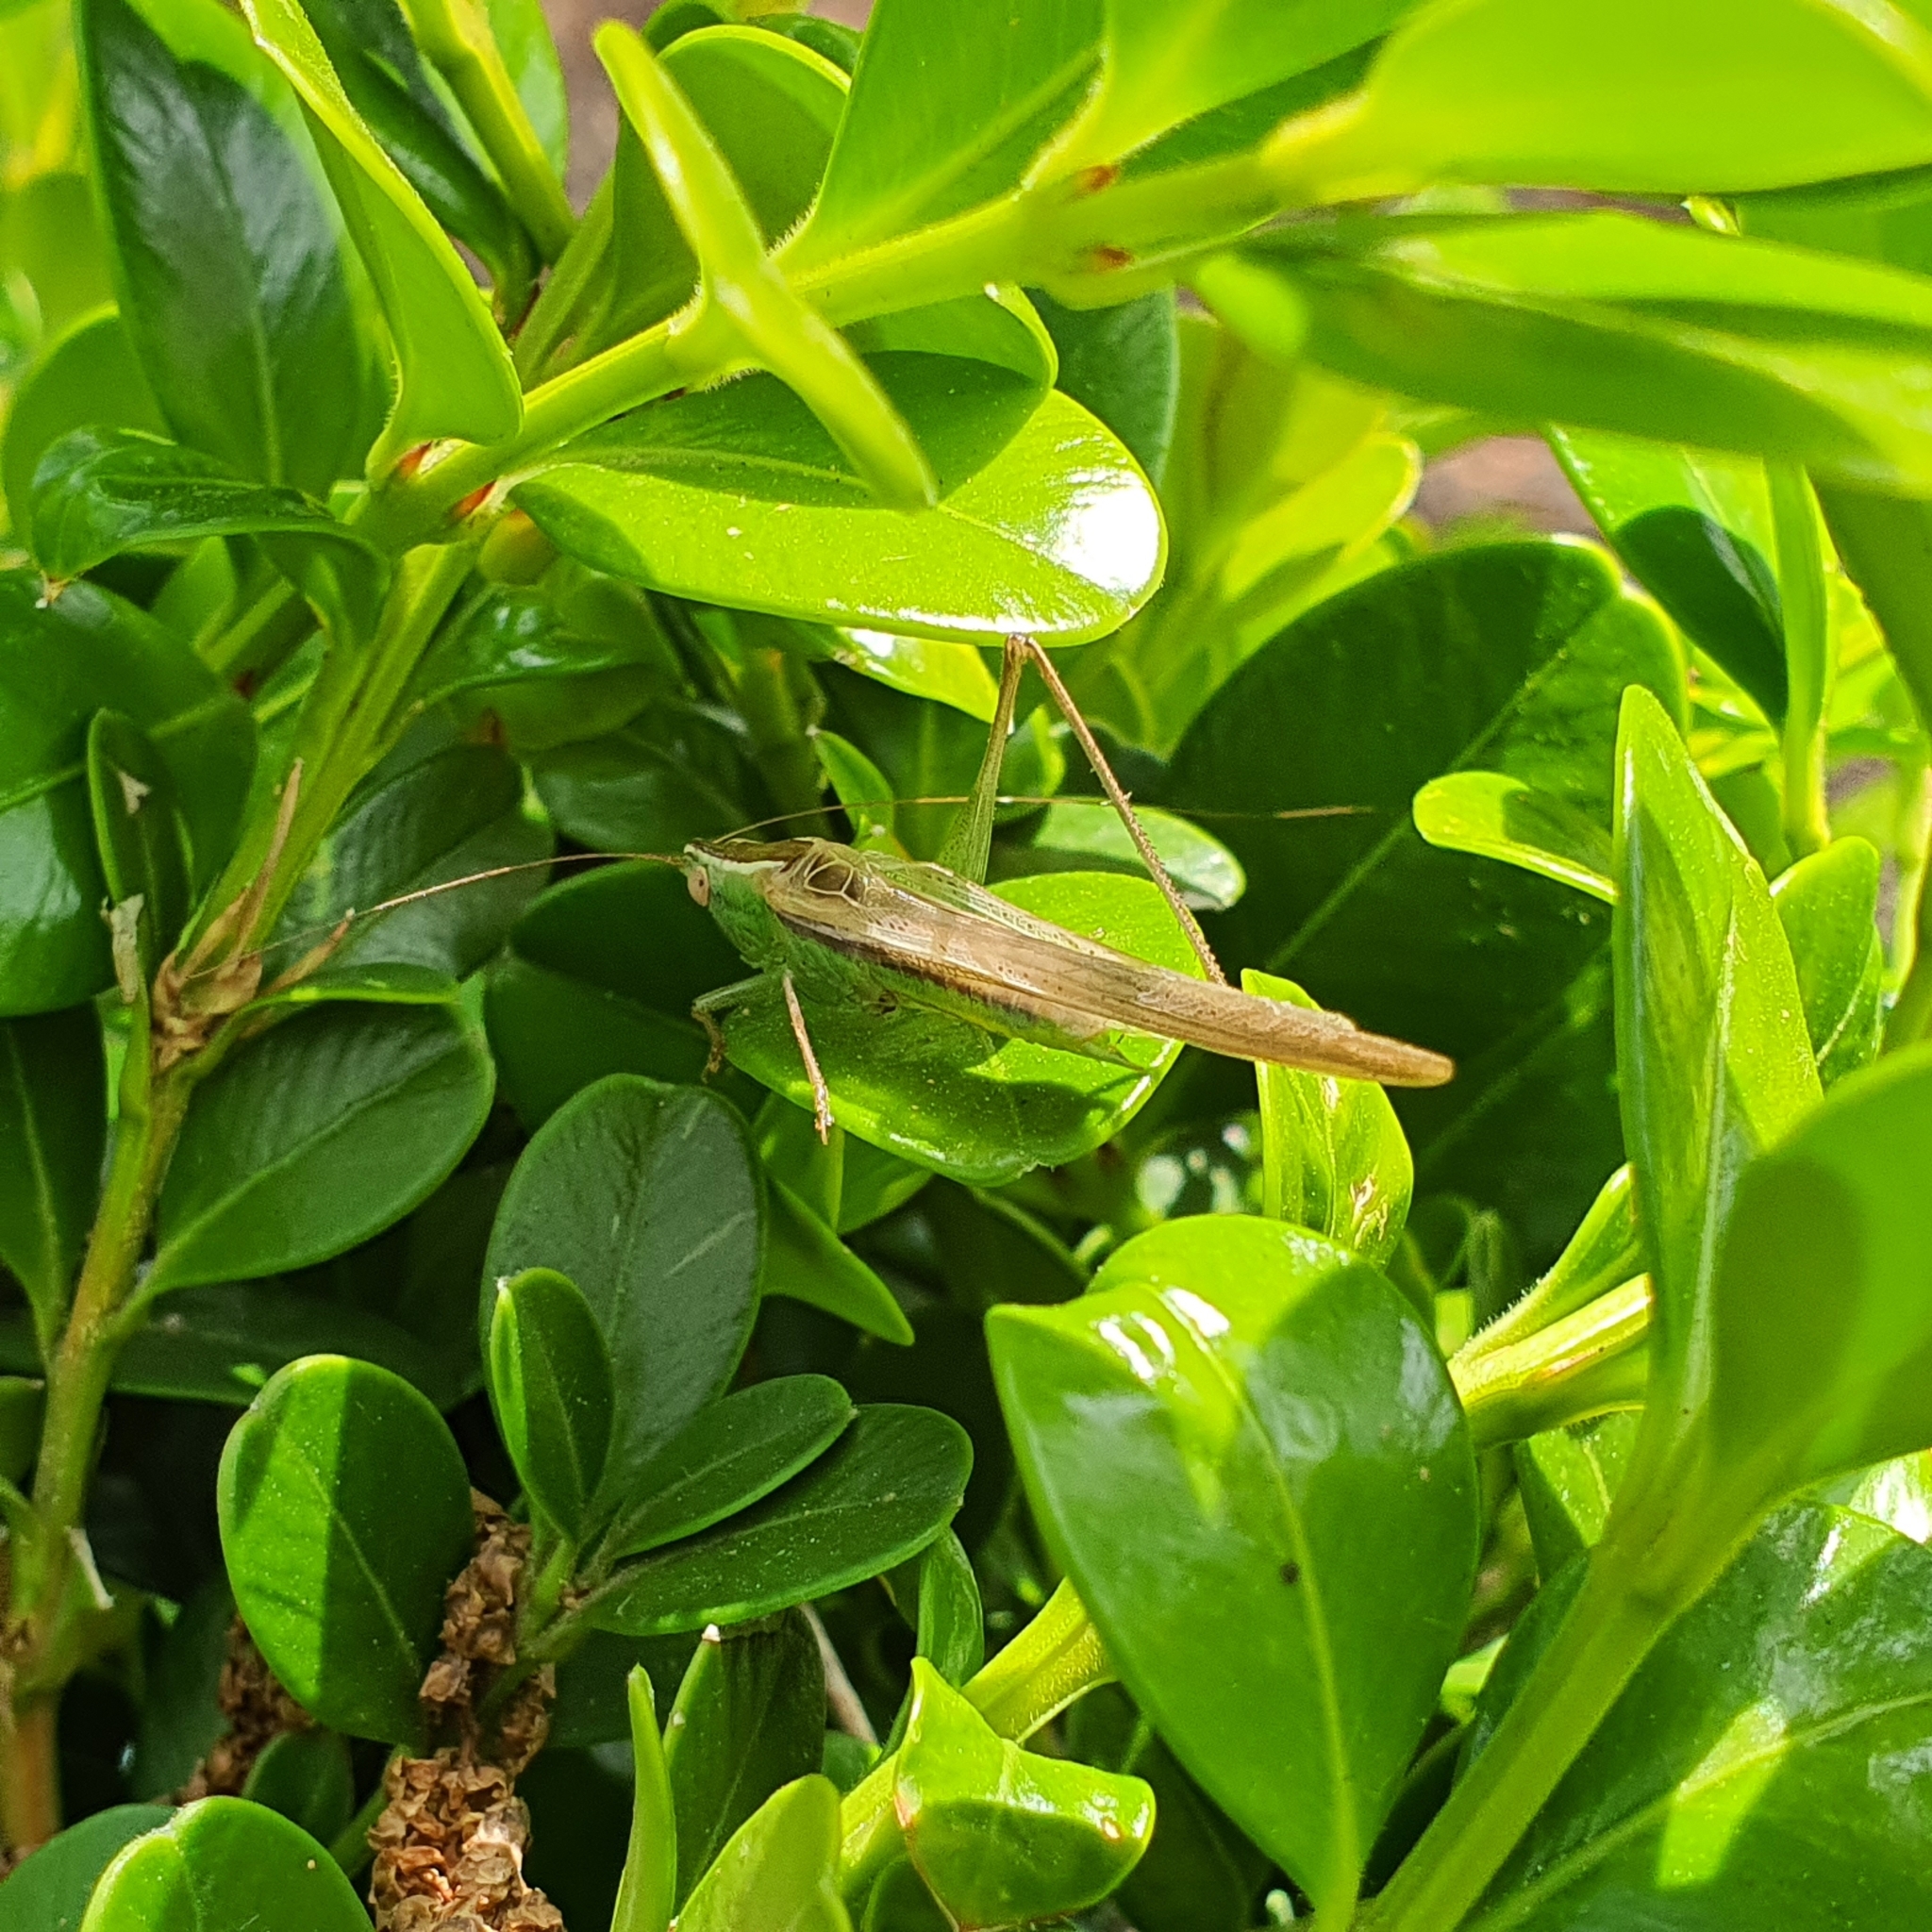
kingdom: Animalia
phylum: Arthropoda
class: Insecta
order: Orthoptera
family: Tettigoniidae
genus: Conocephalus
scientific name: Conocephalus upoluensis
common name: Upolu meadow katydid
